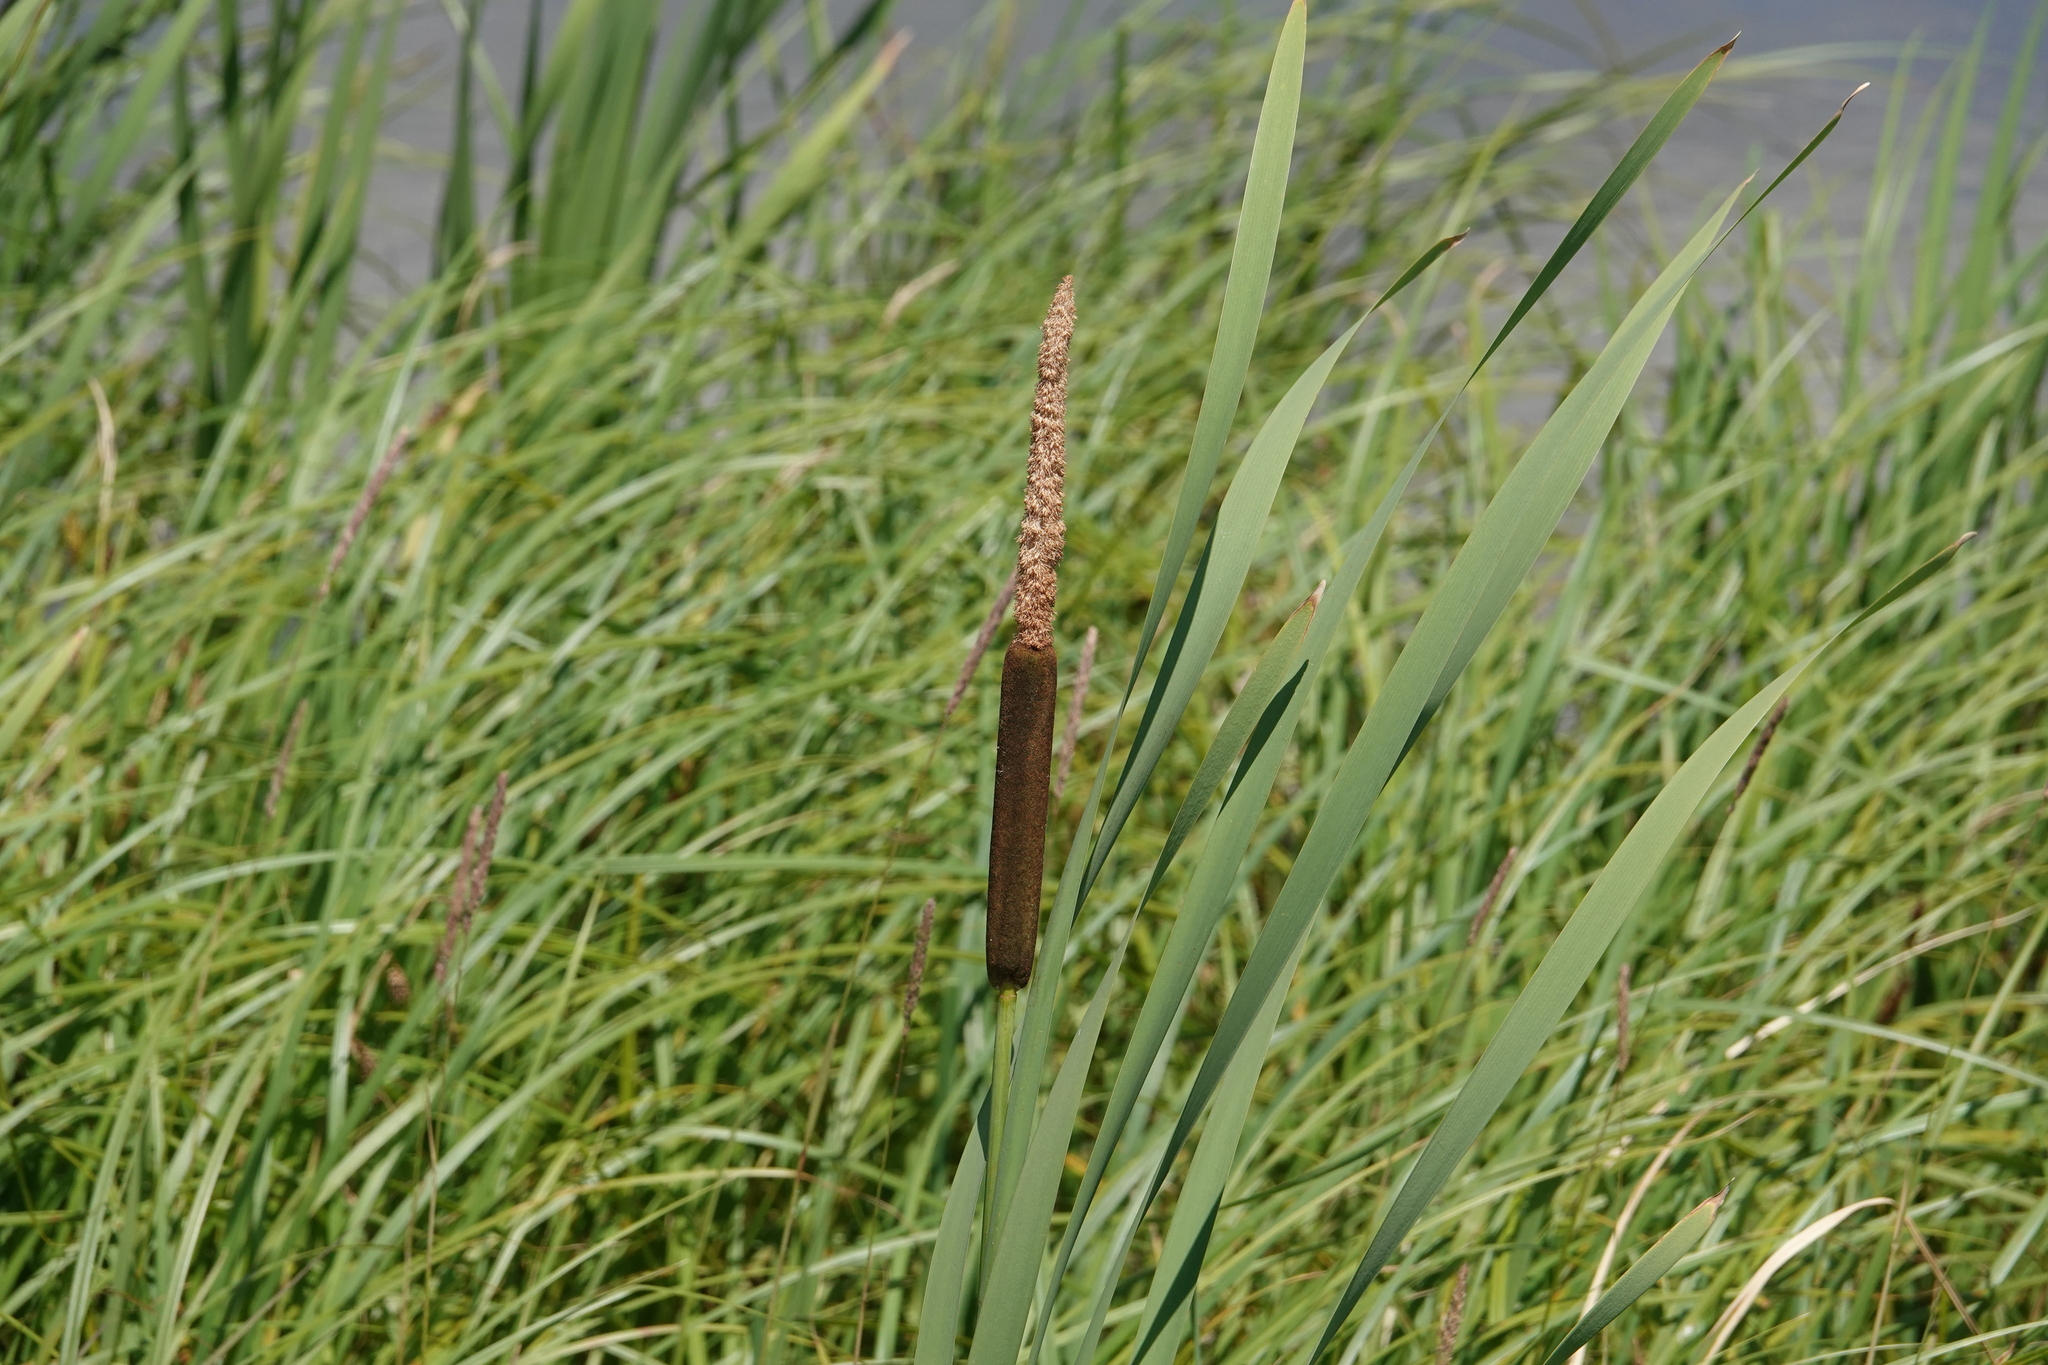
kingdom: Plantae
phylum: Tracheophyta
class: Liliopsida
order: Poales
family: Typhaceae
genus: Typha
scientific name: Typha latifolia
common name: Broadleaf cattail
